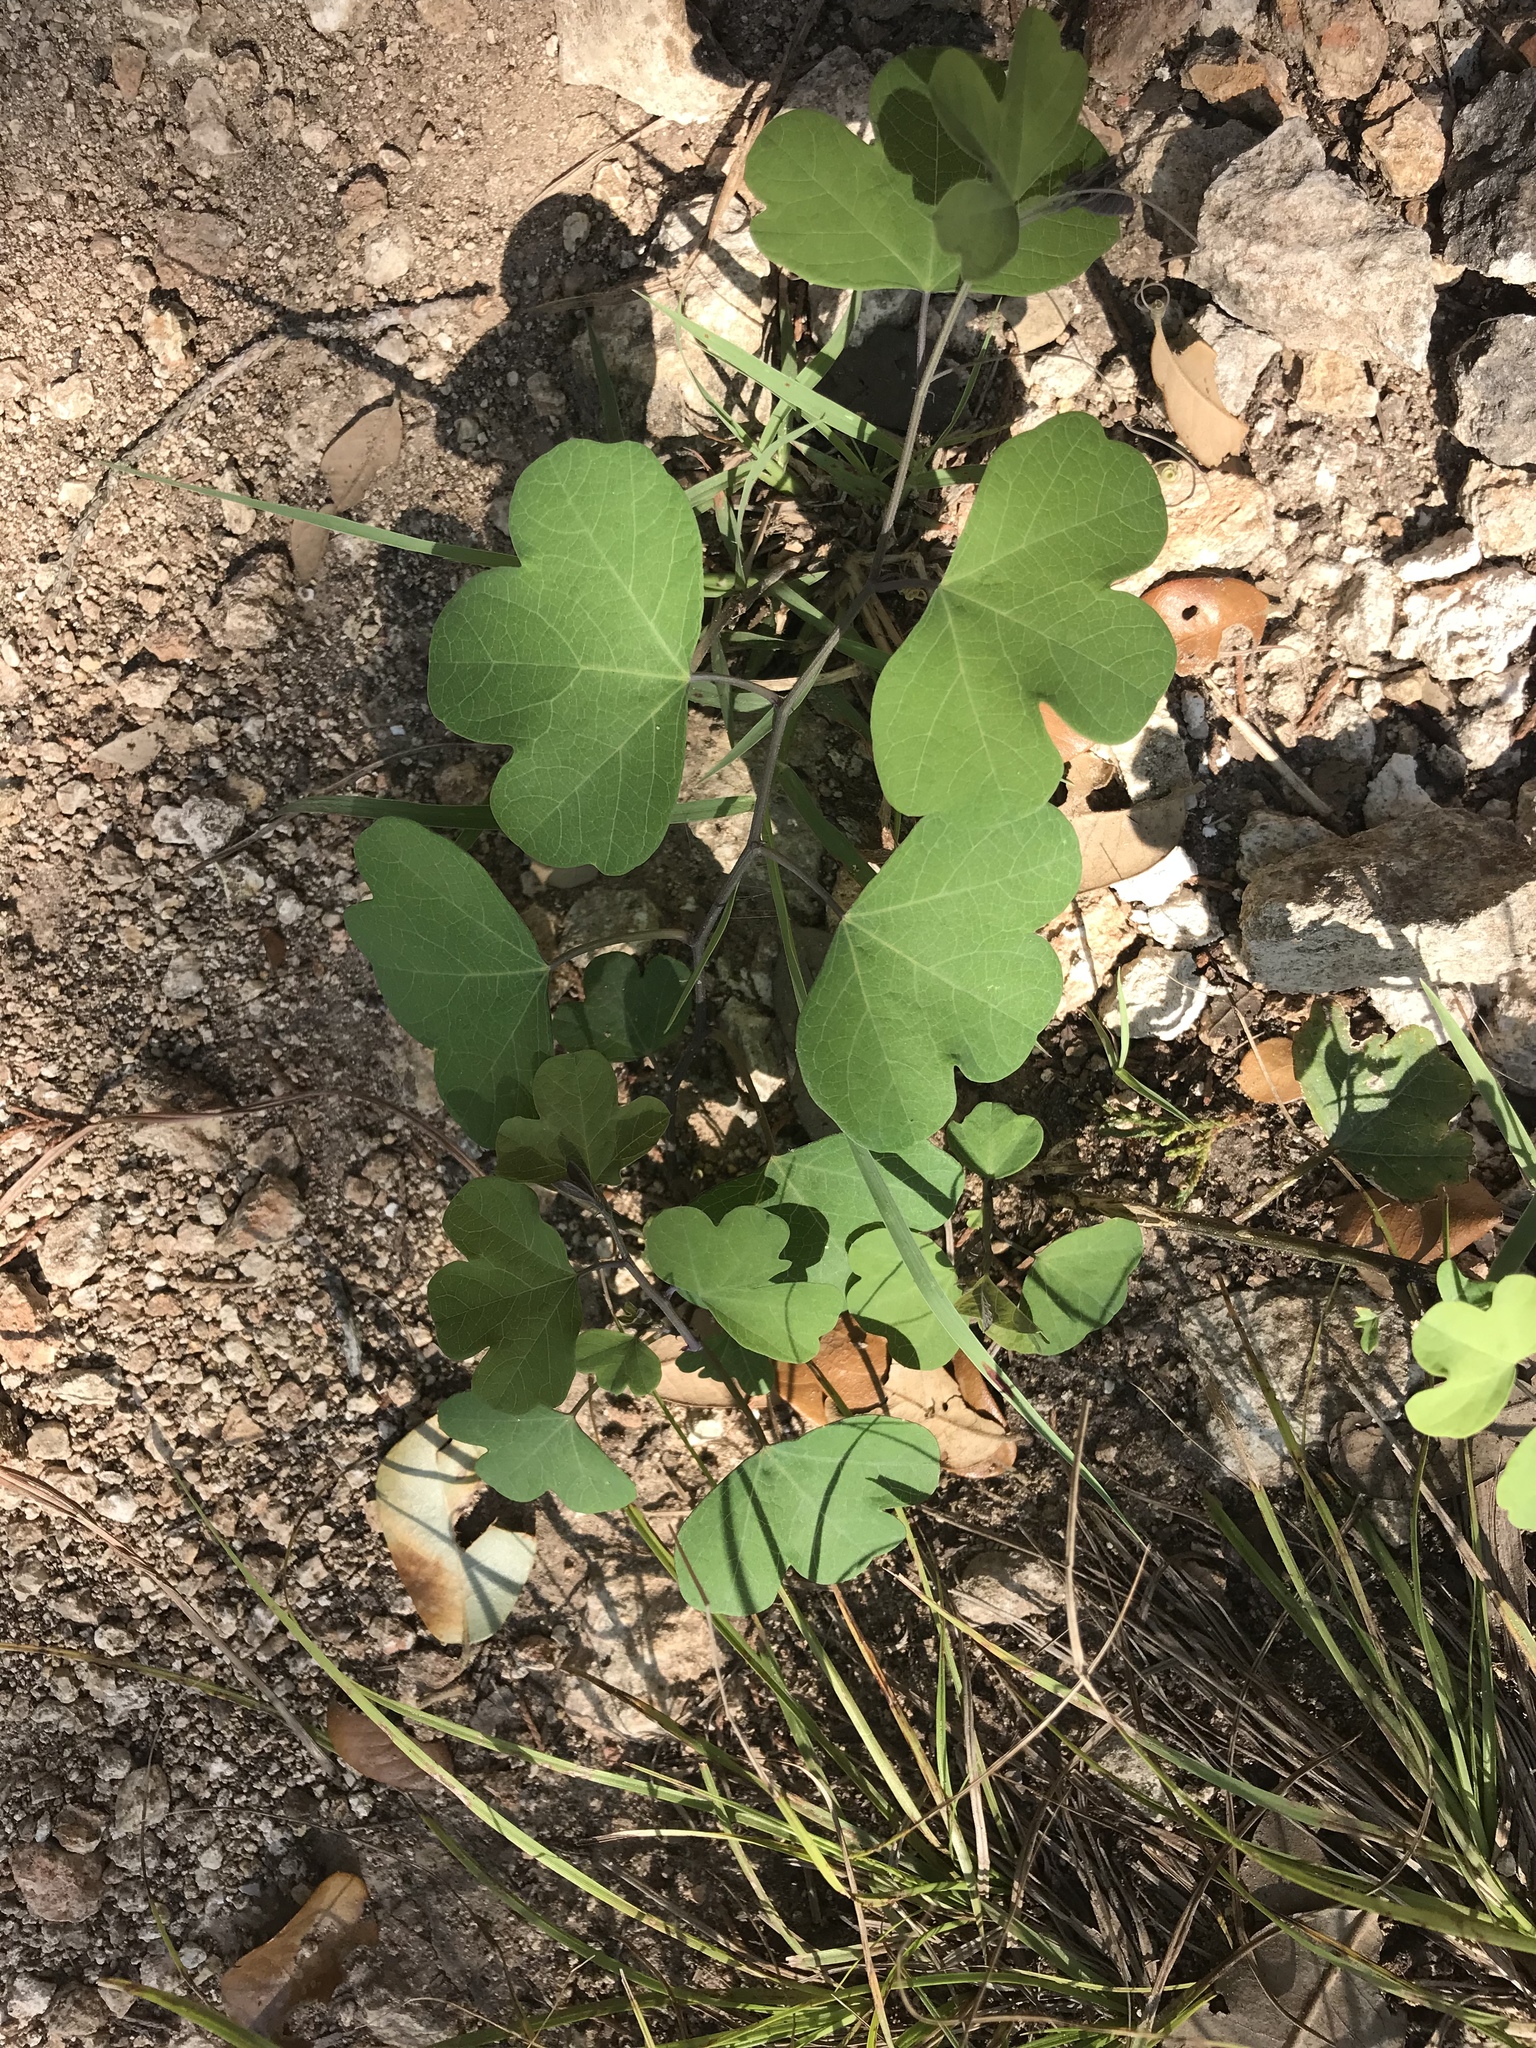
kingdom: Plantae
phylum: Tracheophyta
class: Magnoliopsida
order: Malpighiales
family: Passifloraceae
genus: Passiflora
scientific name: Passiflora affinis
